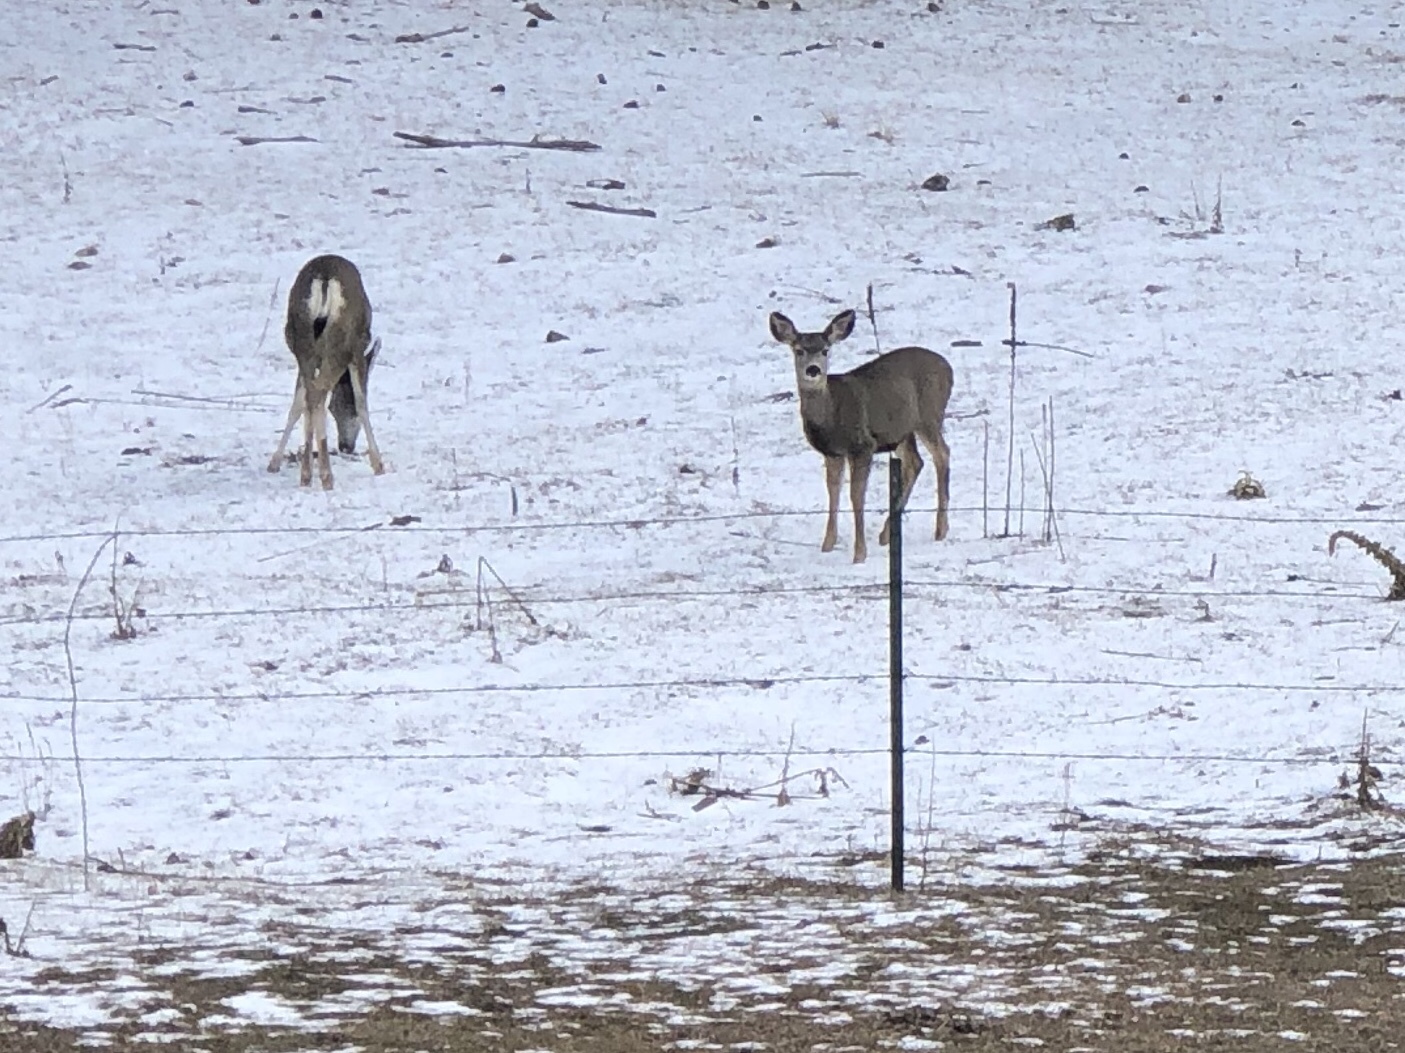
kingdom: Animalia
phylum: Chordata
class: Mammalia
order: Artiodactyla
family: Cervidae
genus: Odocoileus
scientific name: Odocoileus hemionus
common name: Mule deer
